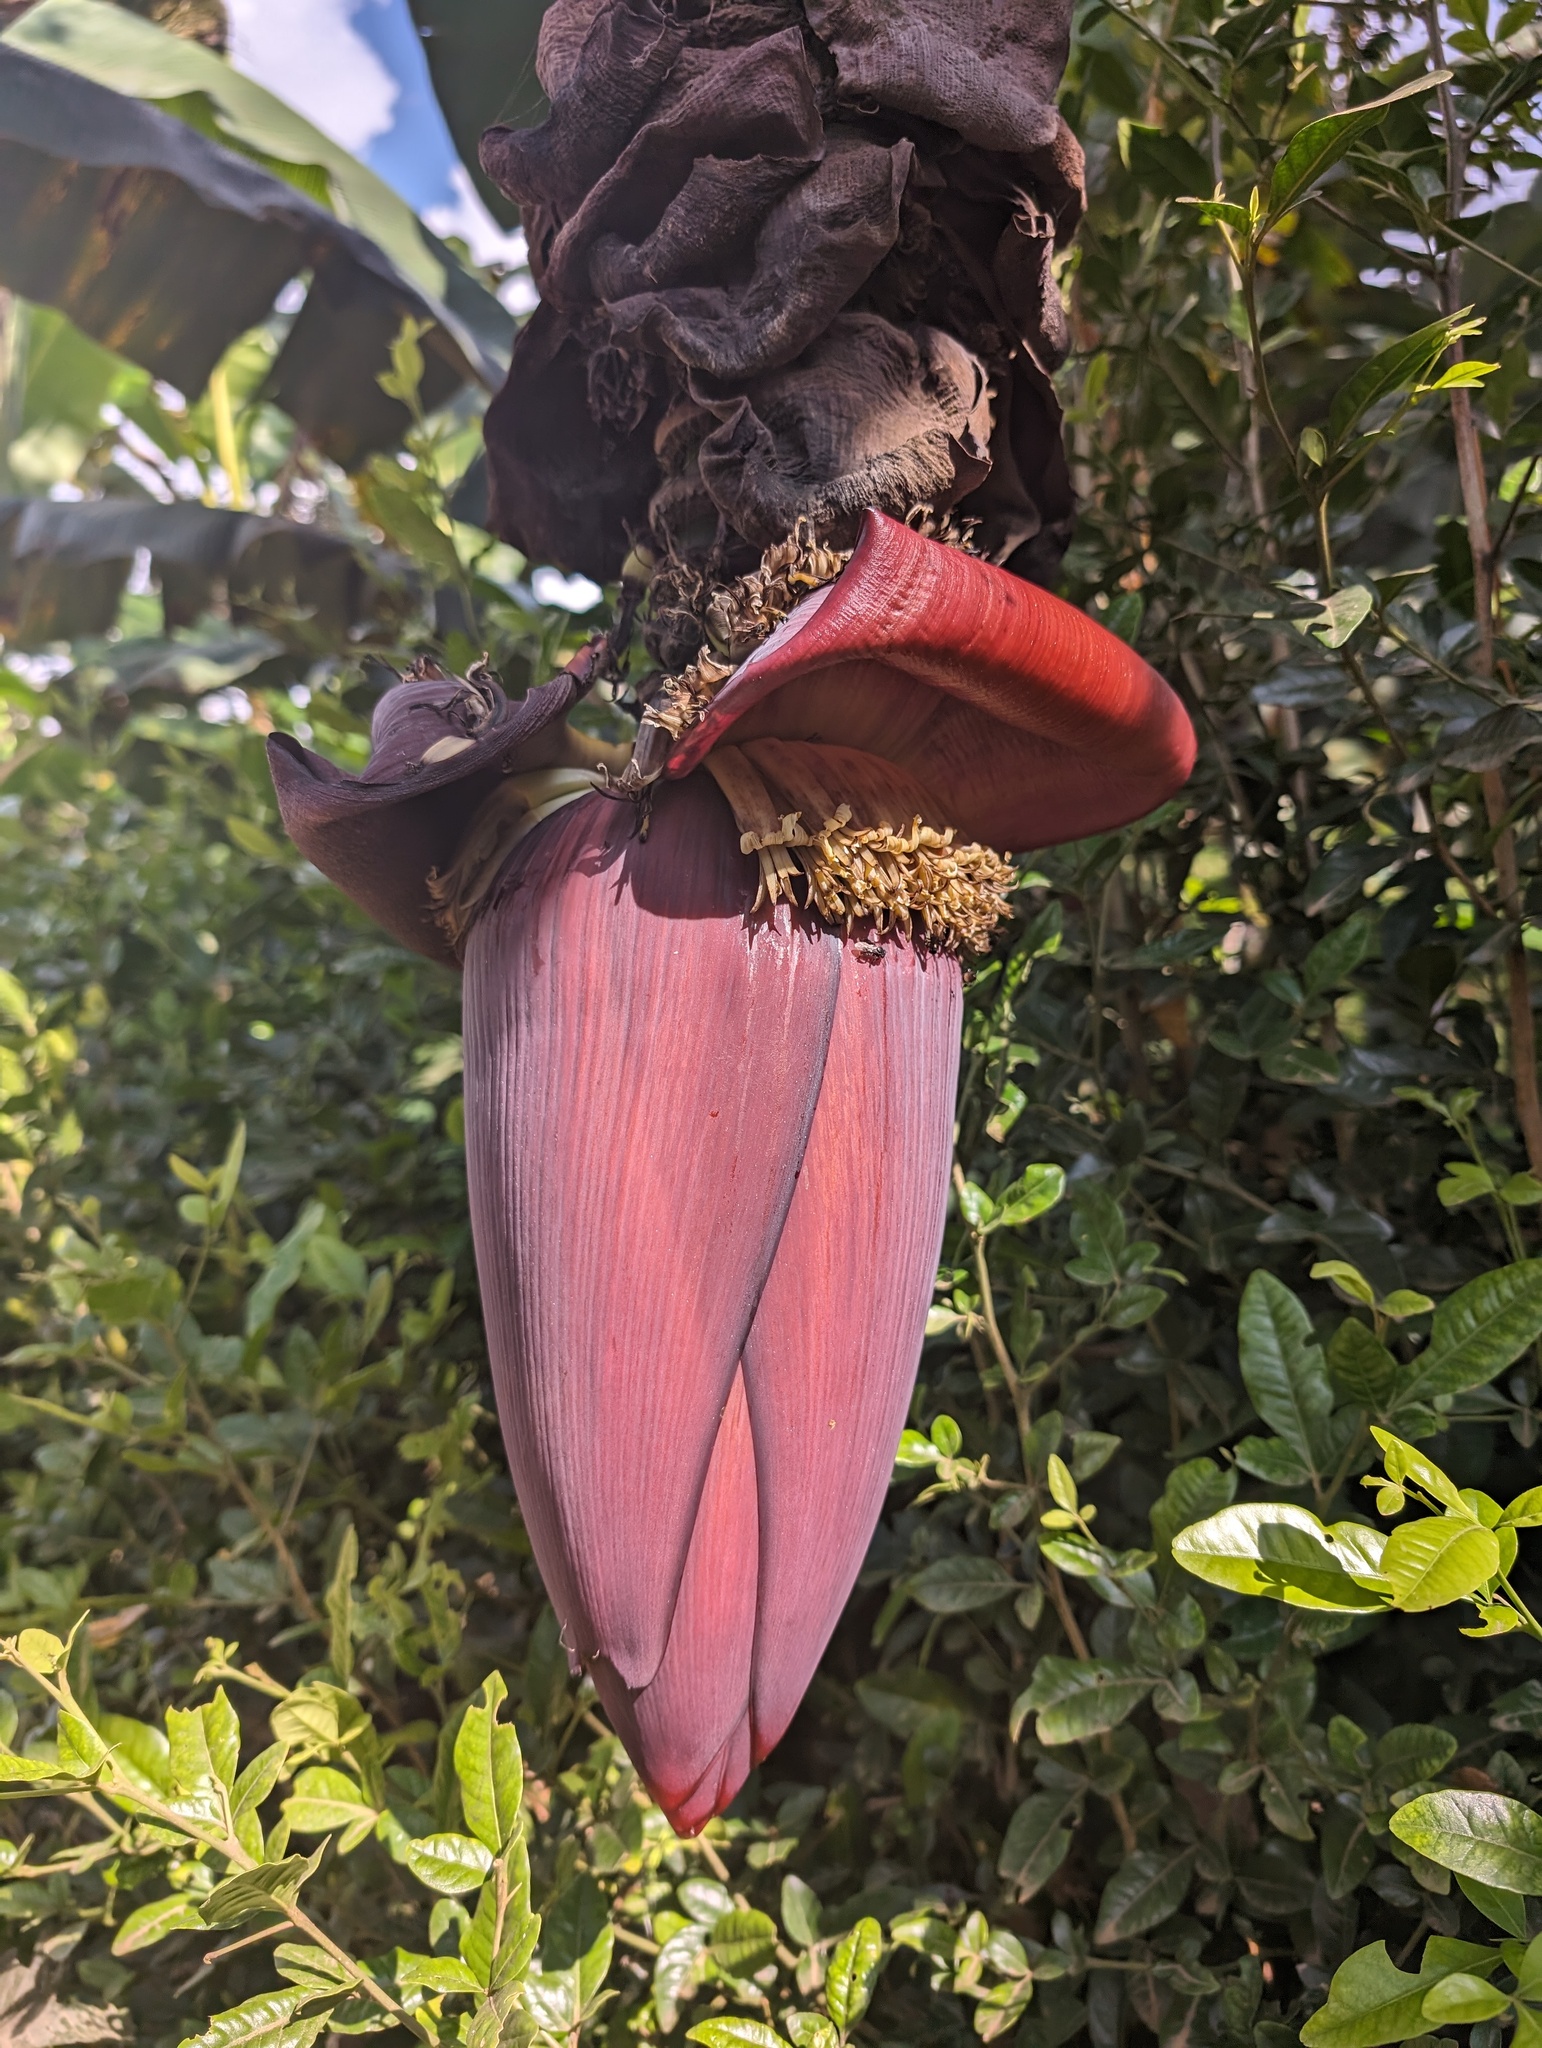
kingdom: Plantae
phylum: Tracheophyta
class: Liliopsida
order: Zingiberales
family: Musaceae
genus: Musa
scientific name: Musa acuminata
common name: Edible banana
